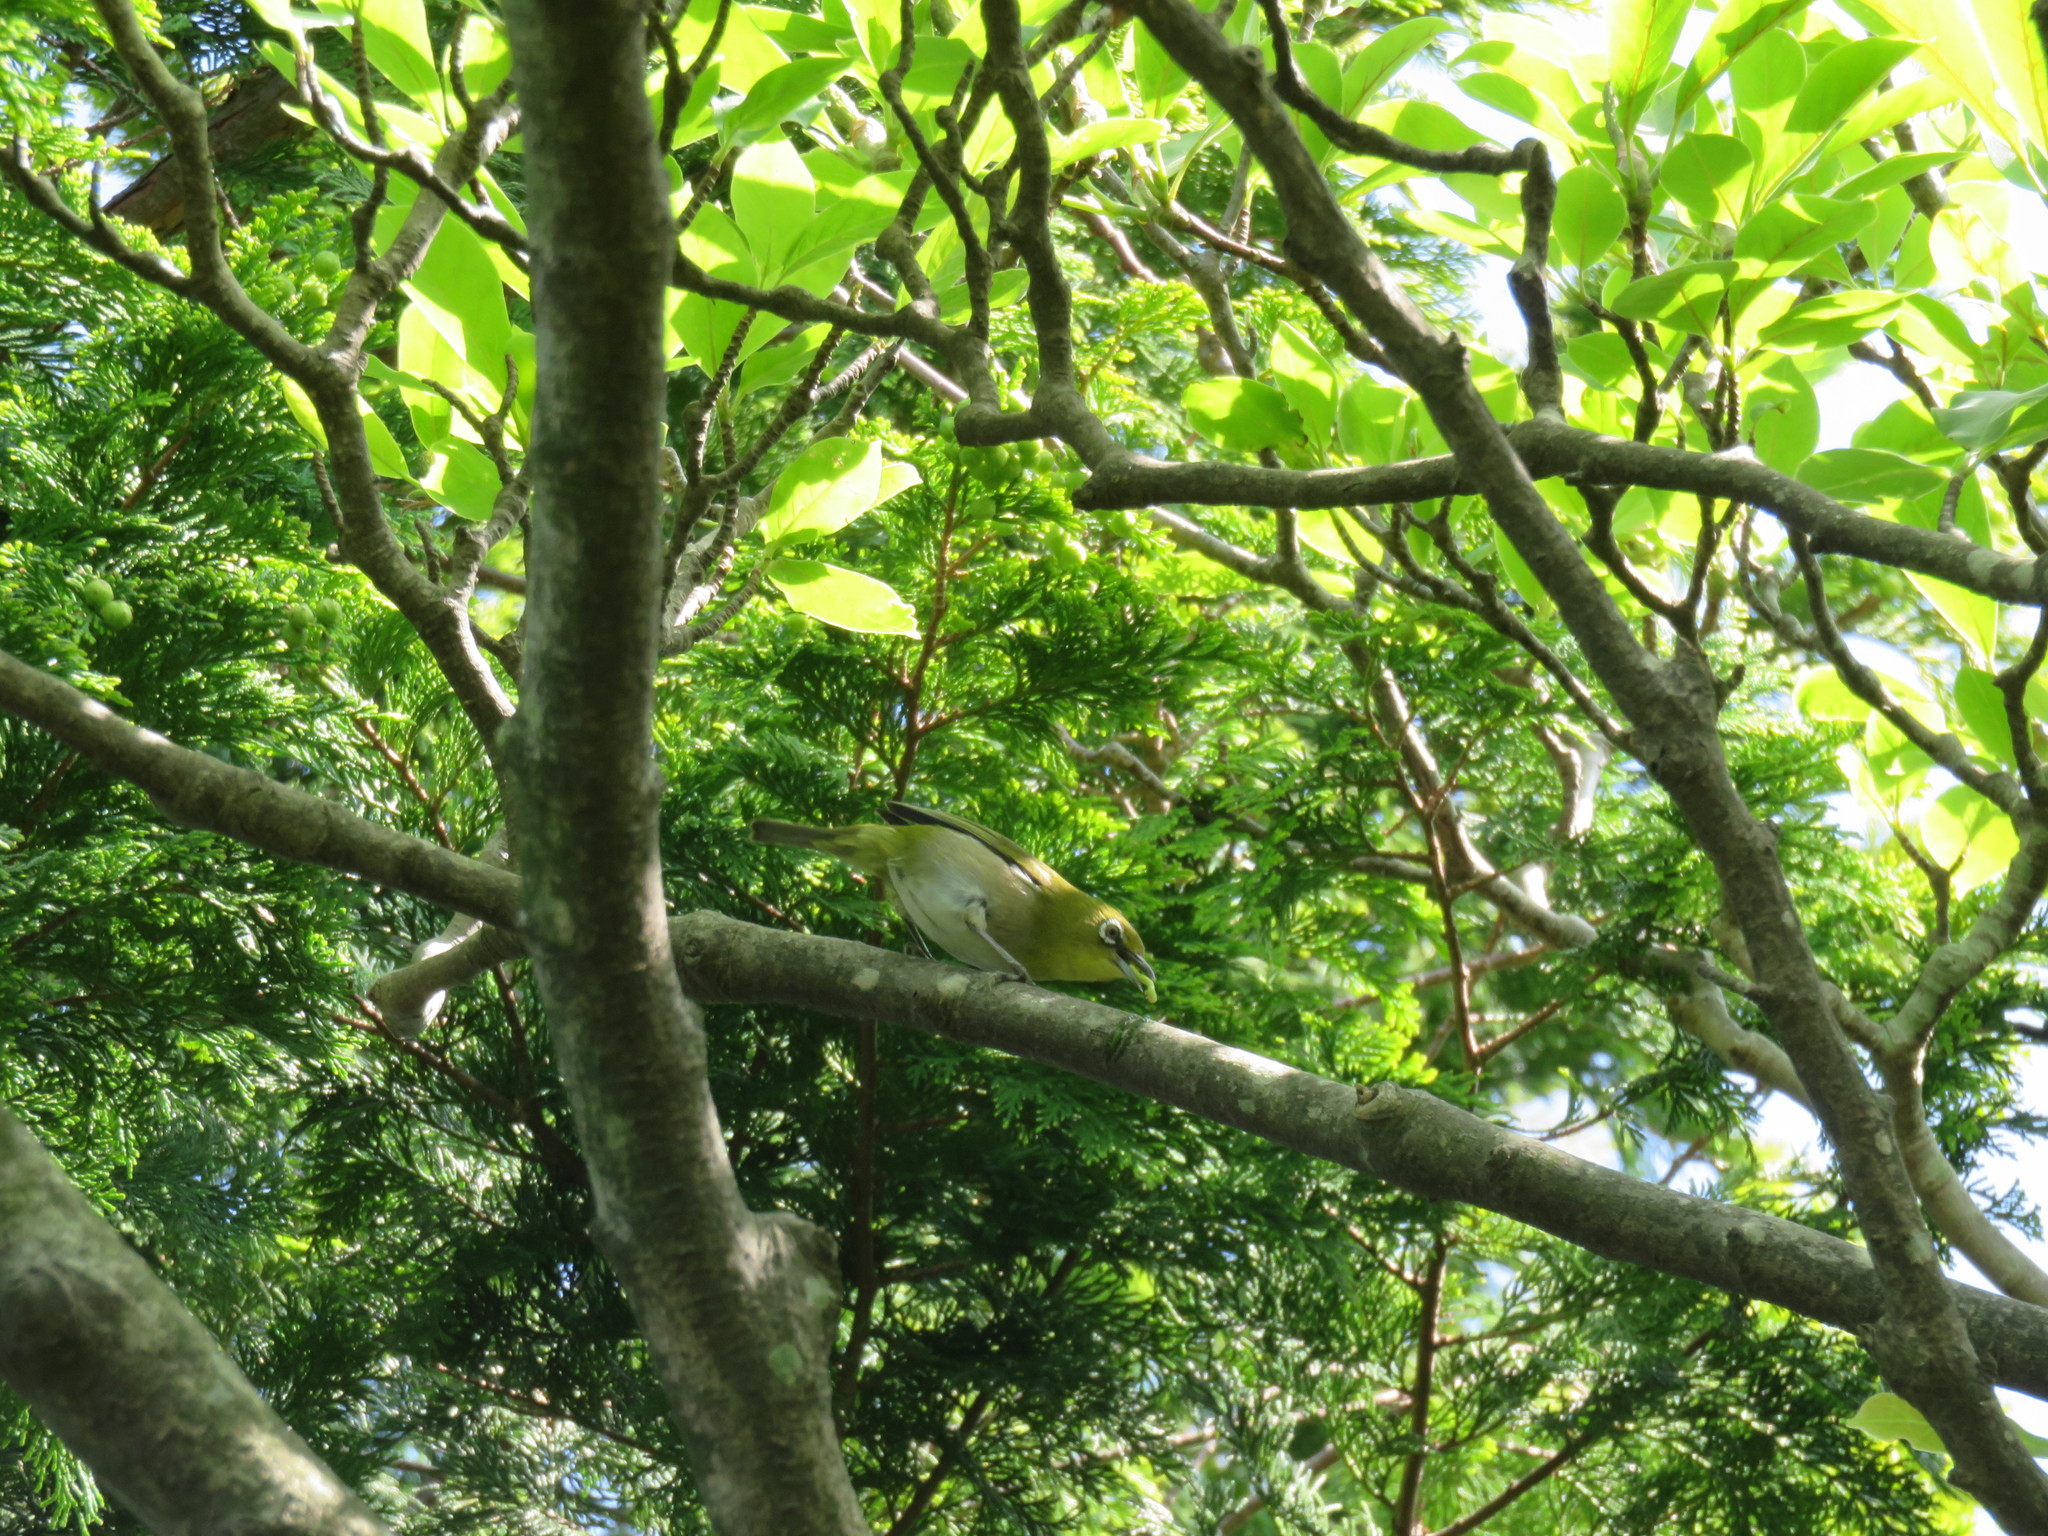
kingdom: Animalia
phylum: Chordata
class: Aves
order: Passeriformes
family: Zosteropidae
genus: Zosterops
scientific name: Zosterops japonicus
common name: Japanese white-eye
